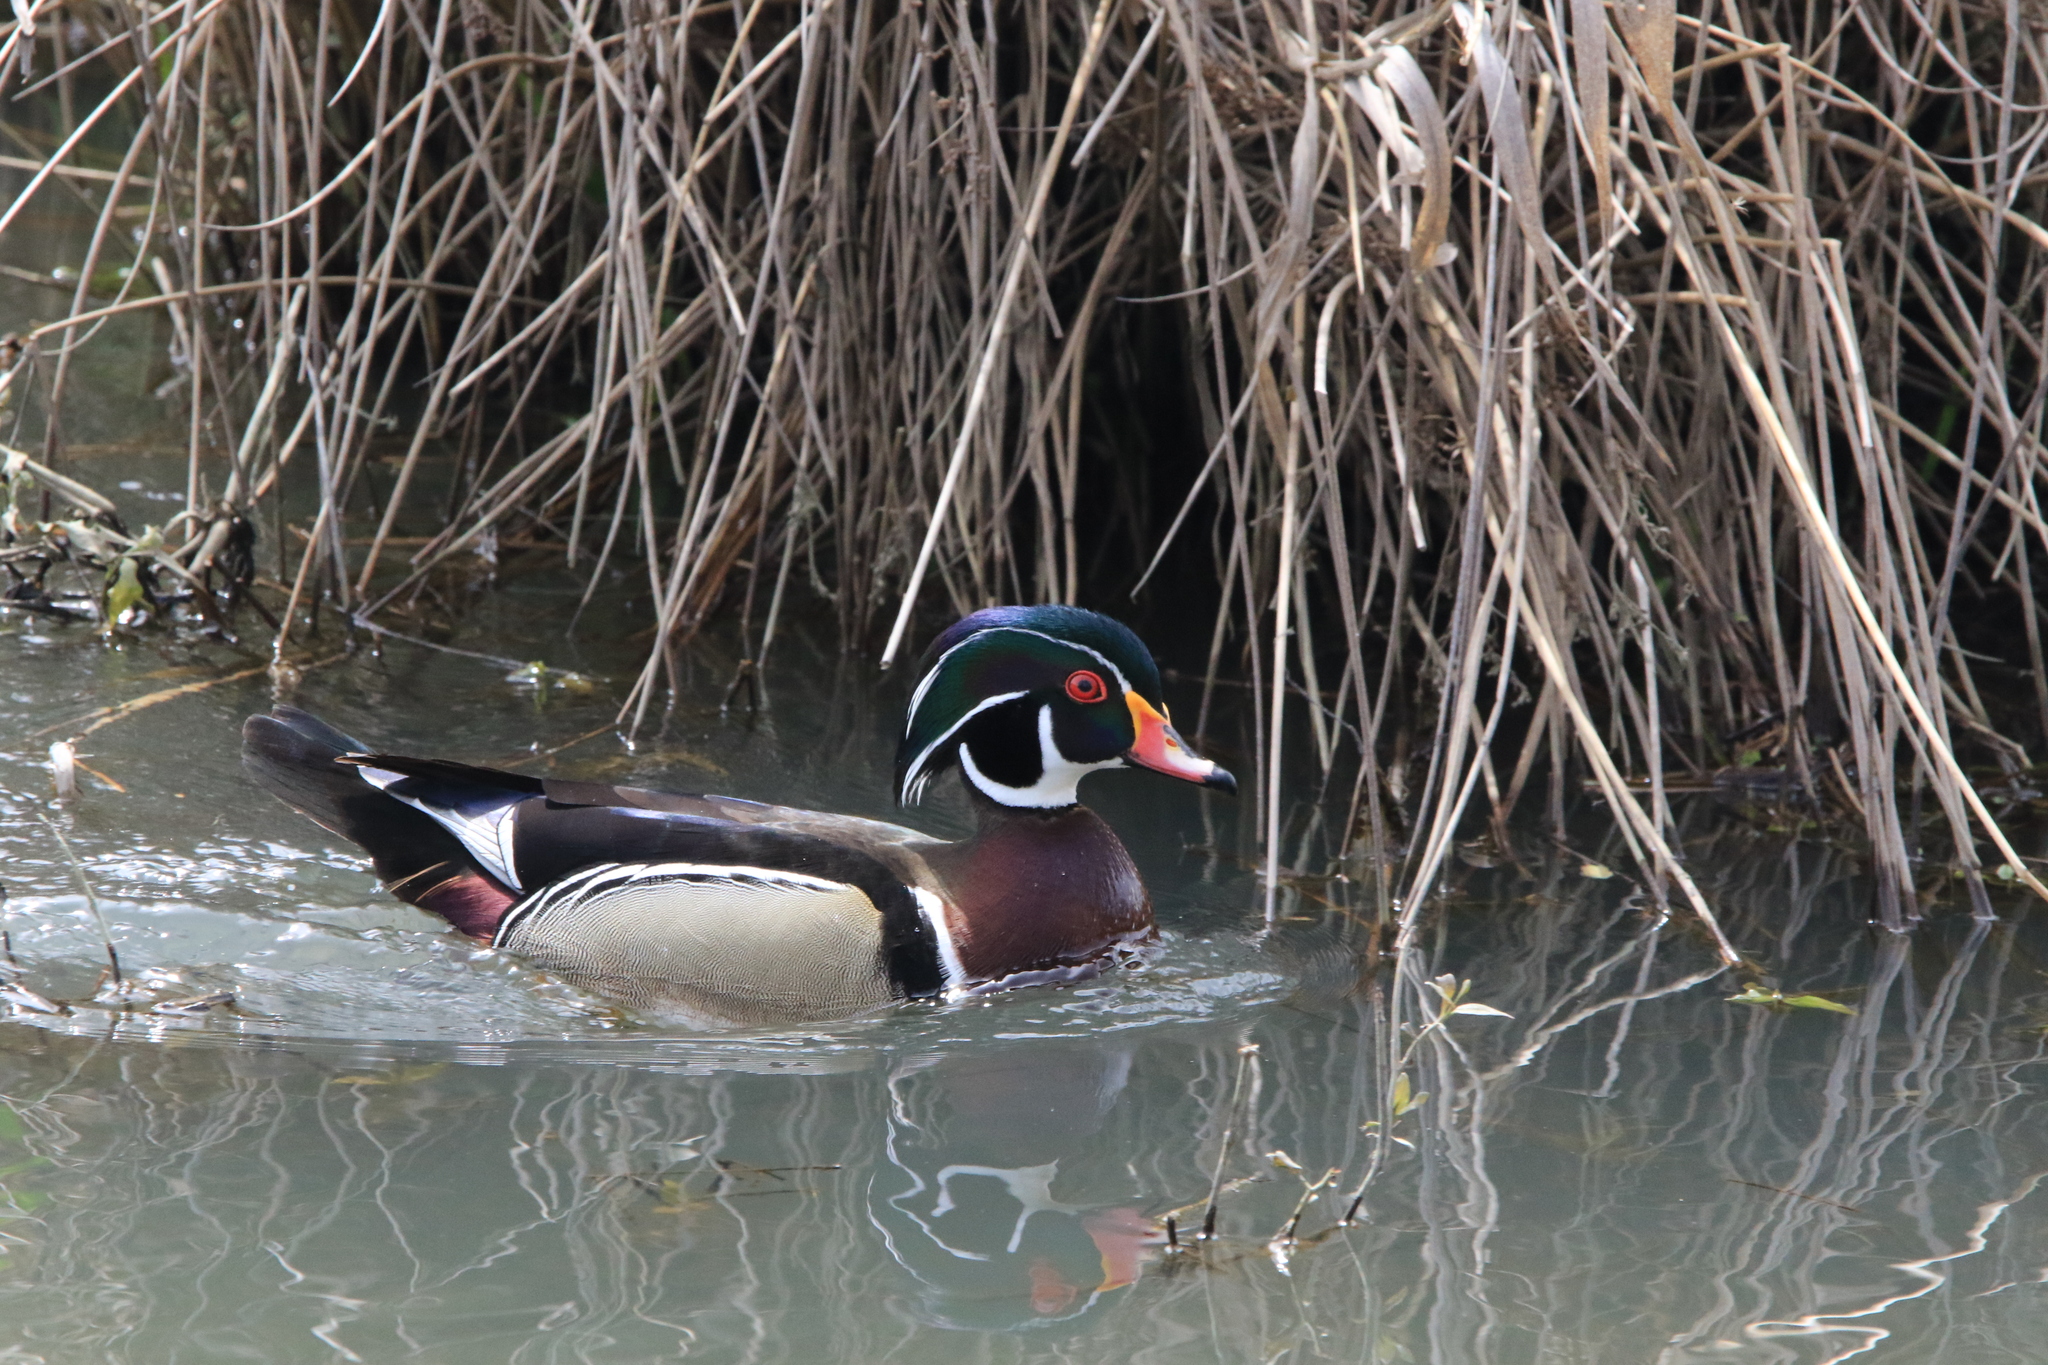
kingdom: Animalia
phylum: Chordata
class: Aves
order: Anseriformes
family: Anatidae
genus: Aix
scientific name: Aix sponsa
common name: Wood duck
